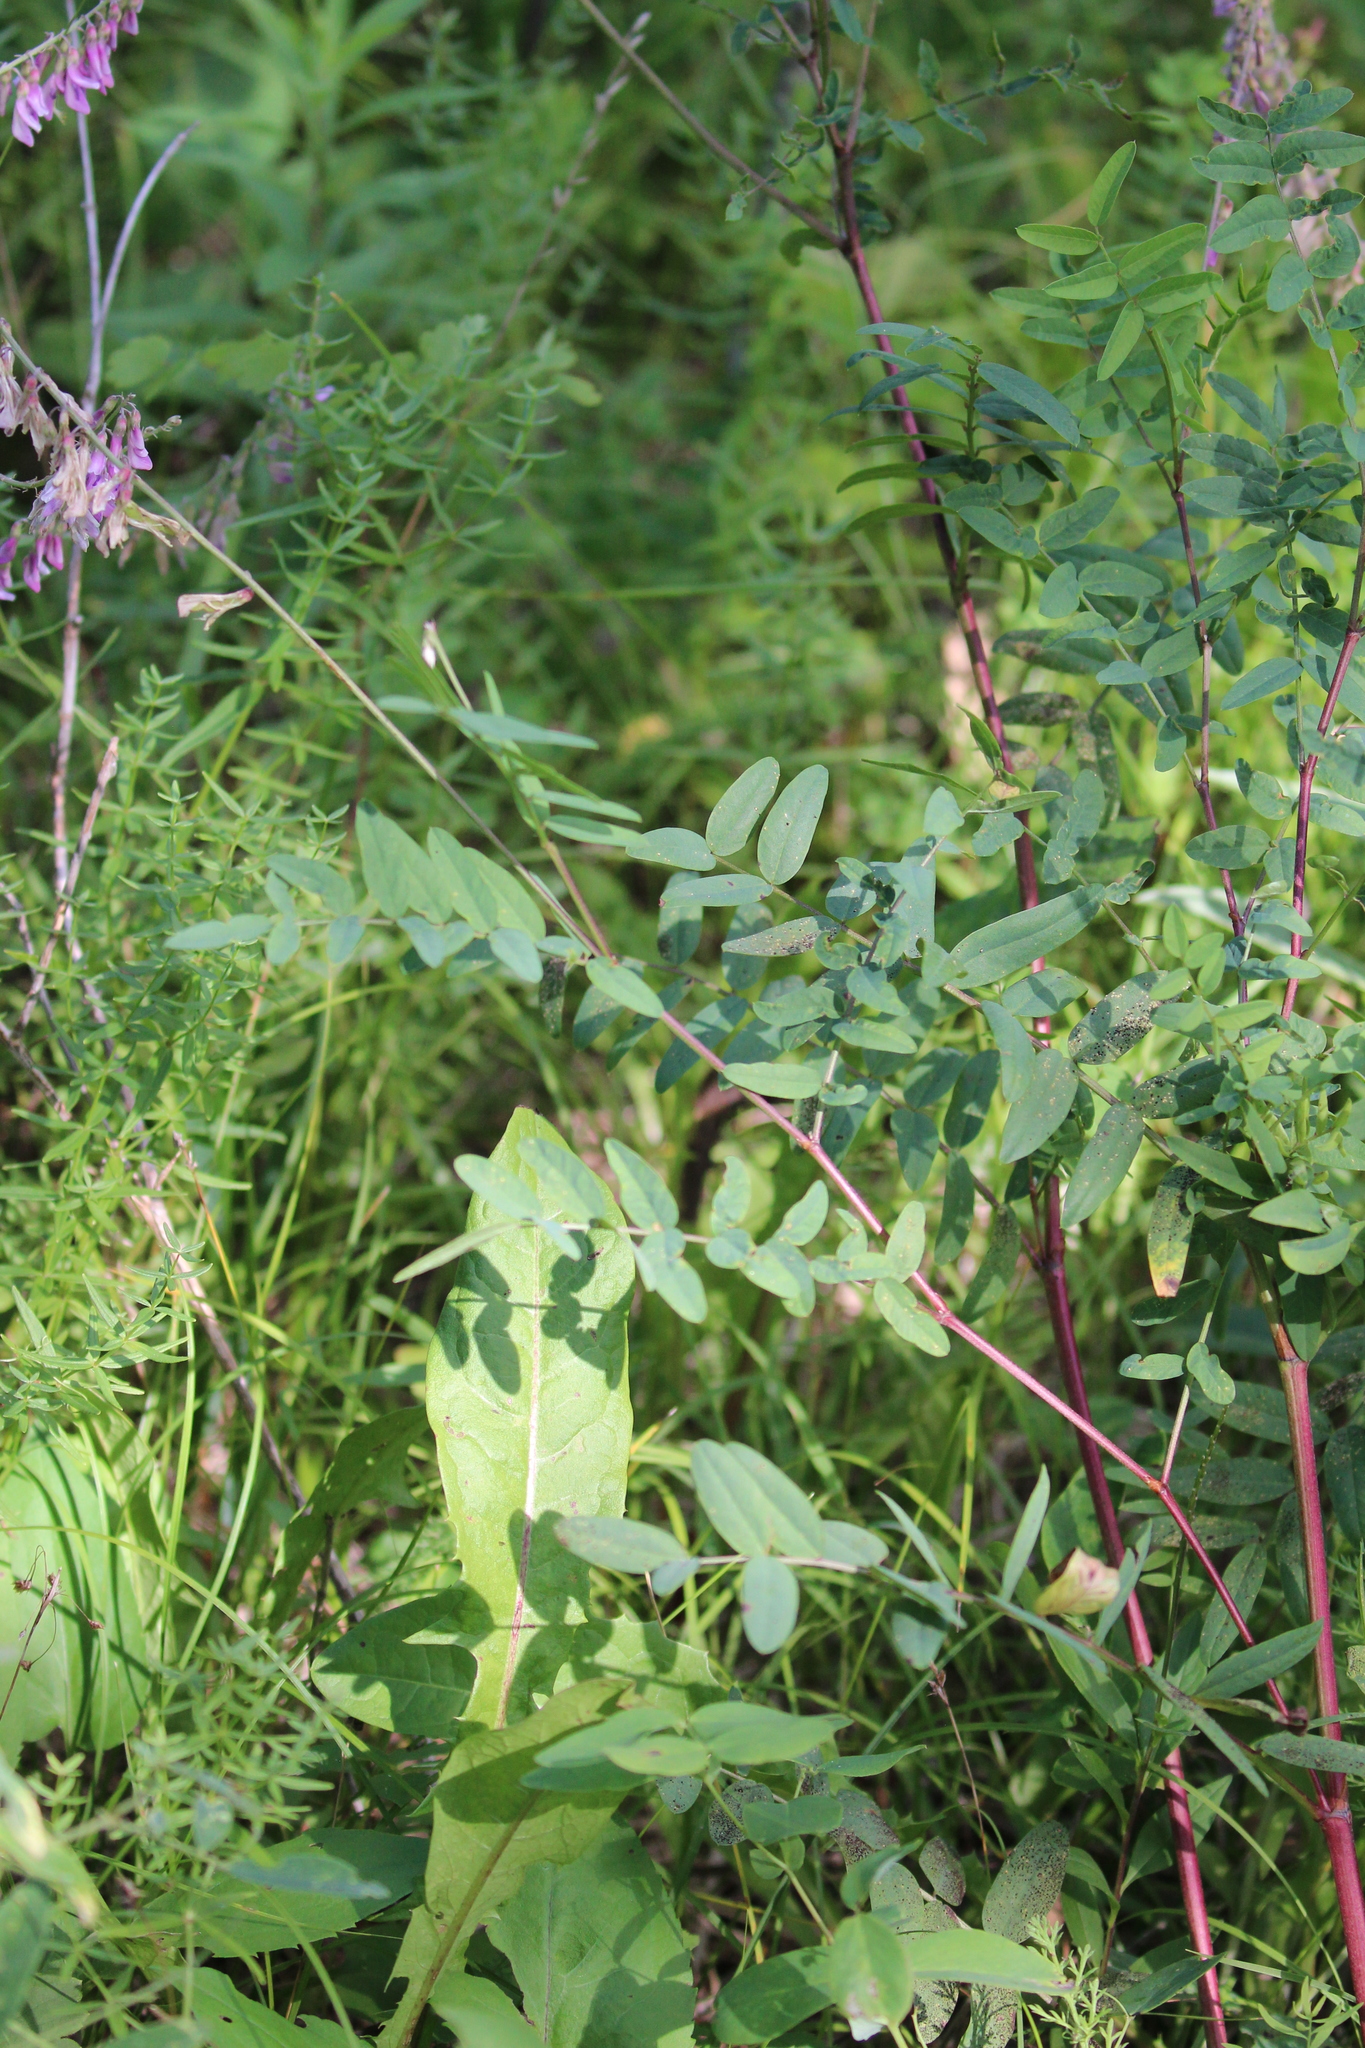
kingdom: Plantae
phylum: Tracheophyta
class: Magnoliopsida
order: Fabales
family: Fabaceae
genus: Hedysarum
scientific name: Hedysarum alpinum
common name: Alpine sweet-vetch
